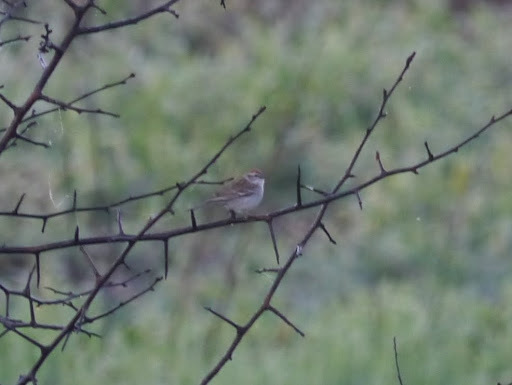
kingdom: Animalia
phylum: Chordata
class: Aves
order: Passeriformes
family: Passerellidae
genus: Spizella
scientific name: Spizella passerina
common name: Chipping sparrow
